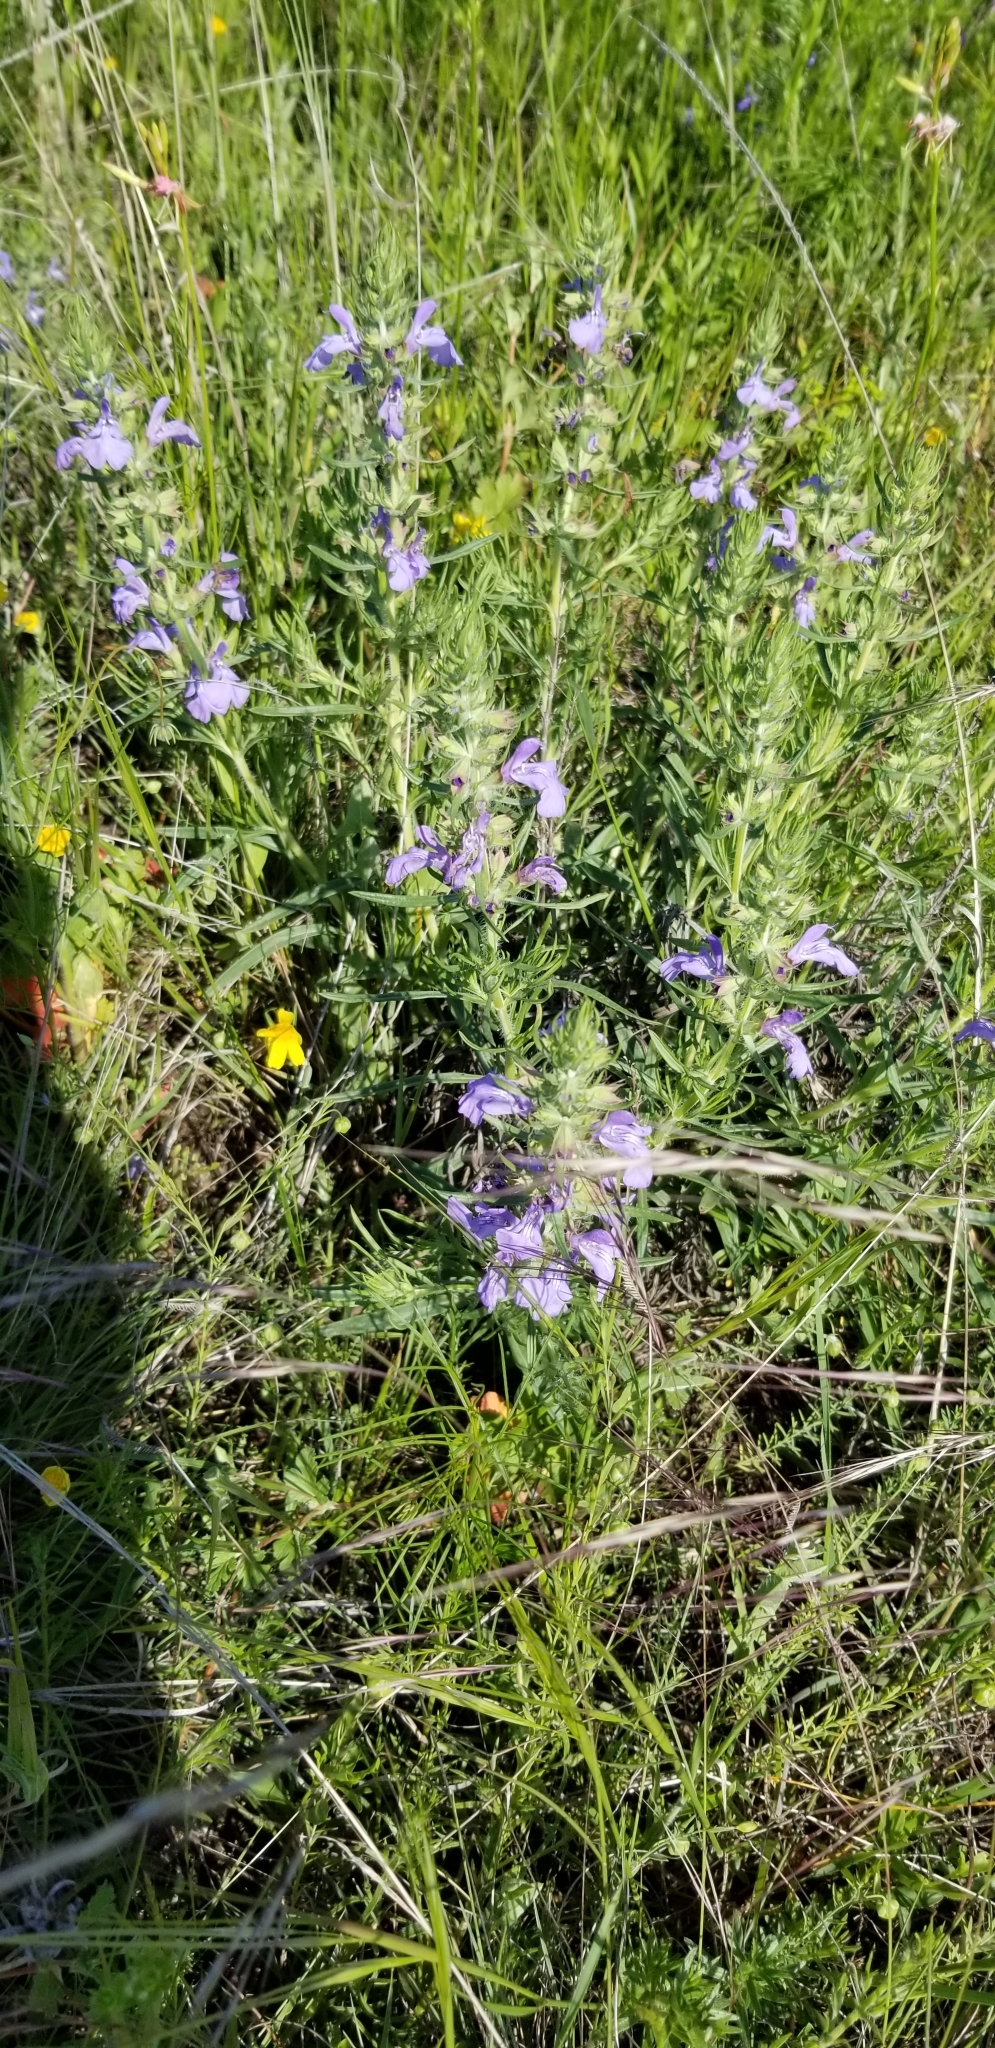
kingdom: Plantae
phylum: Tracheophyta
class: Magnoliopsida
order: Lamiales
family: Lamiaceae
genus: Salvia
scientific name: Salvia engelmannii
